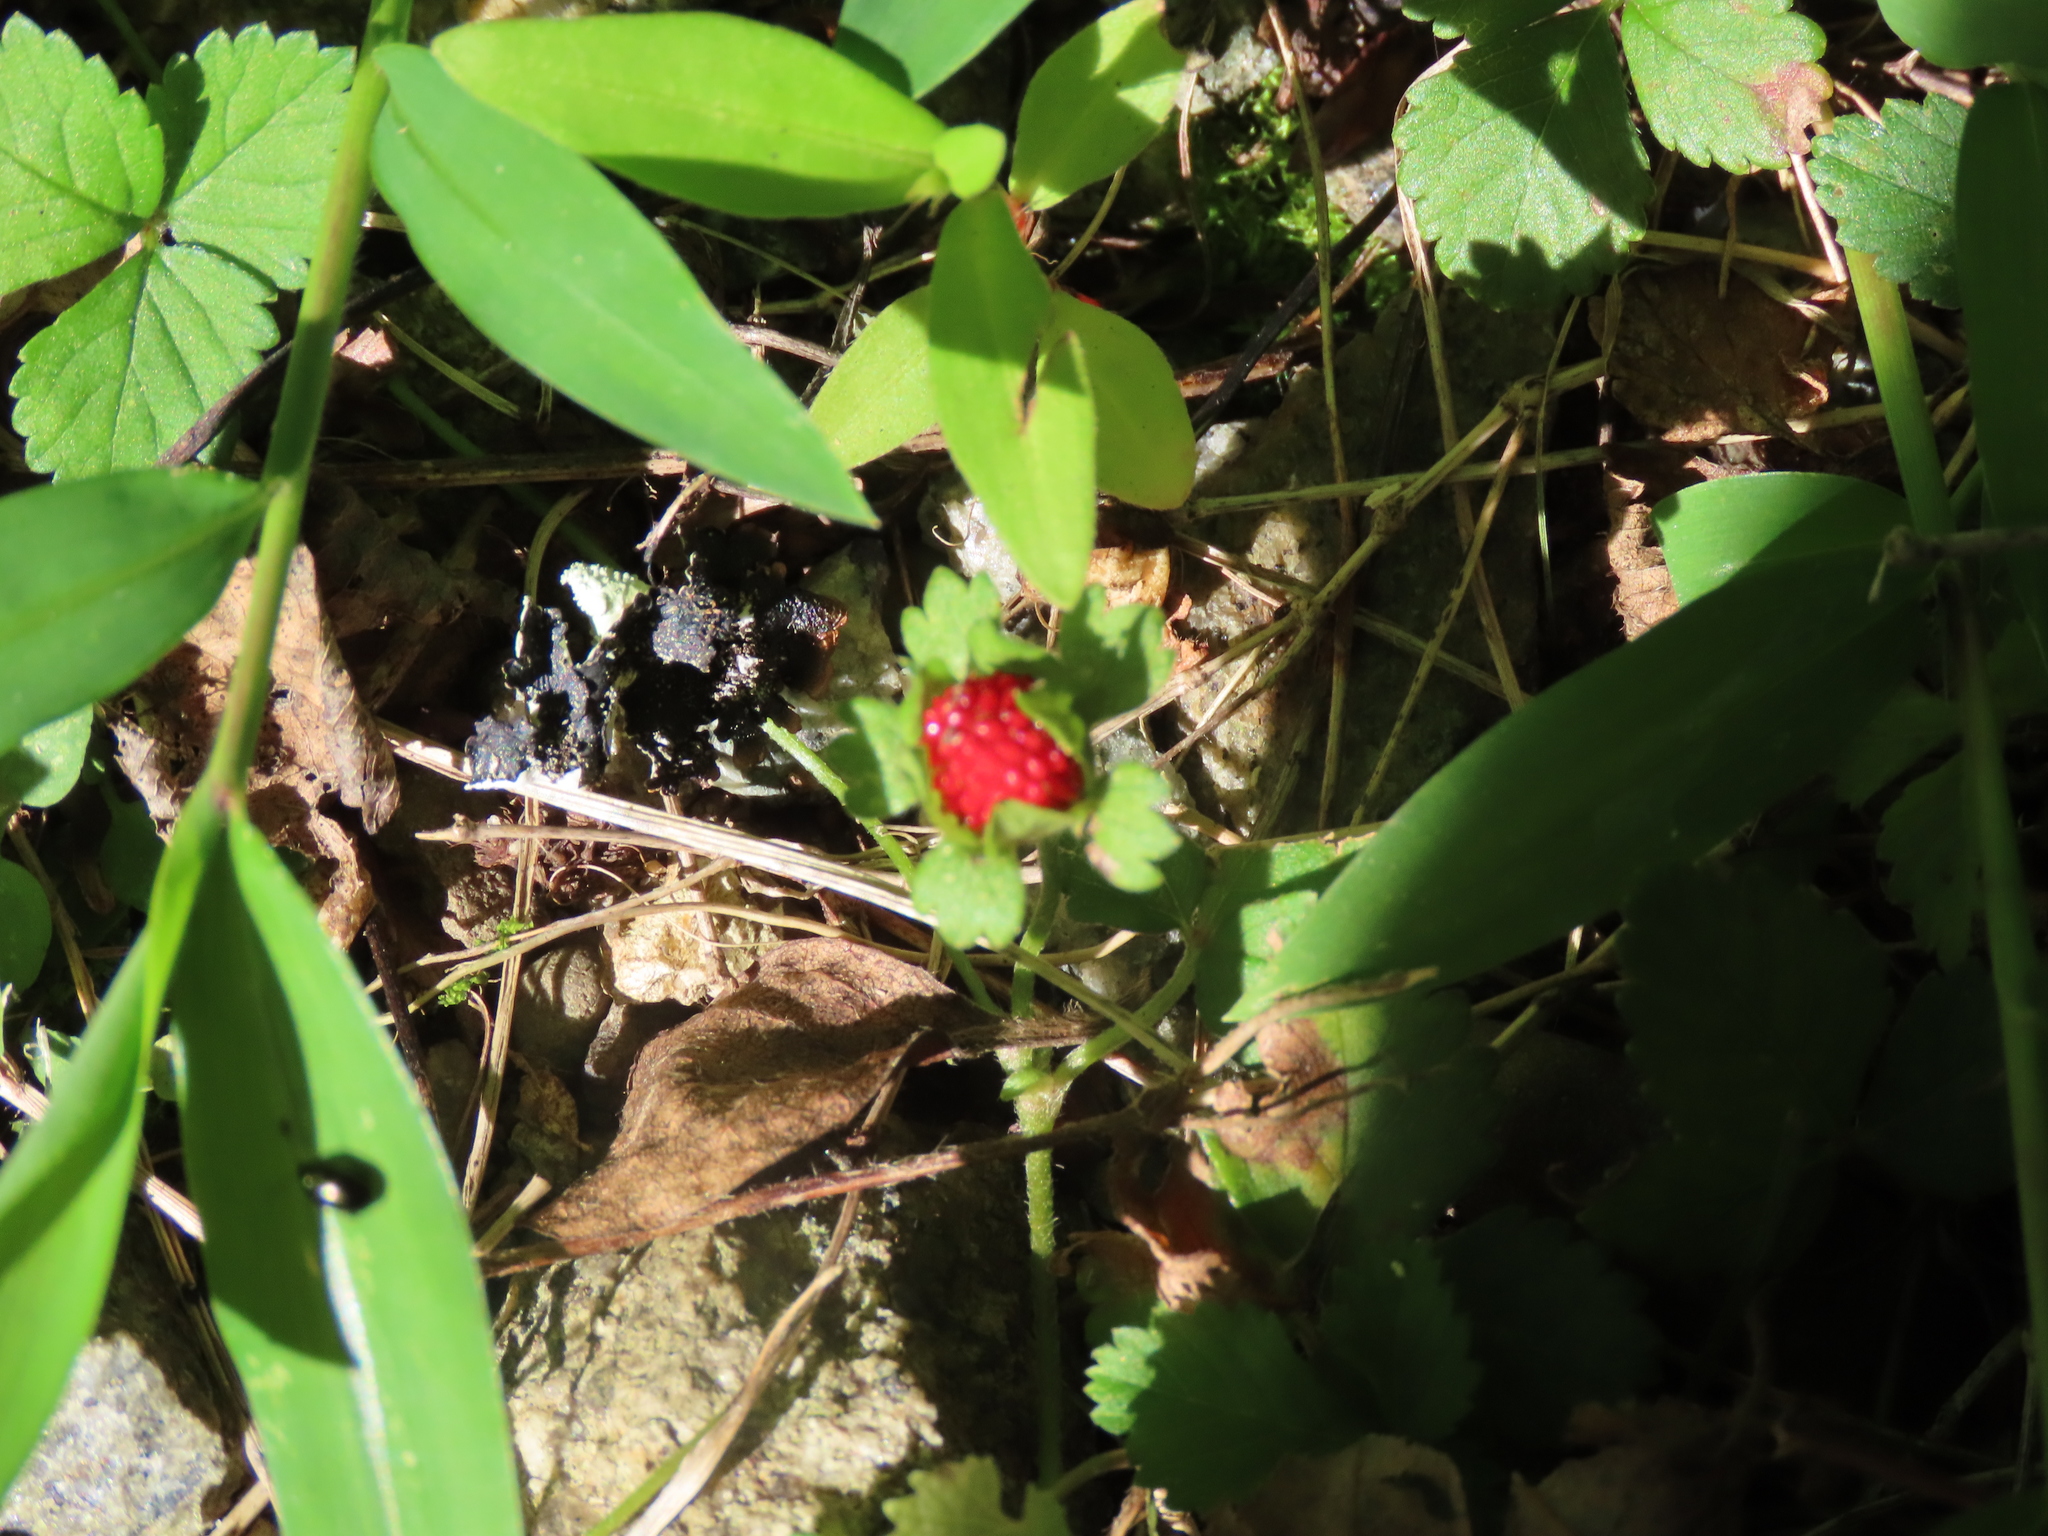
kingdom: Plantae
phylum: Tracheophyta
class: Magnoliopsida
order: Rosales
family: Rosaceae
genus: Potentilla
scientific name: Potentilla indica
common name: Yellow-flowered strawberry
